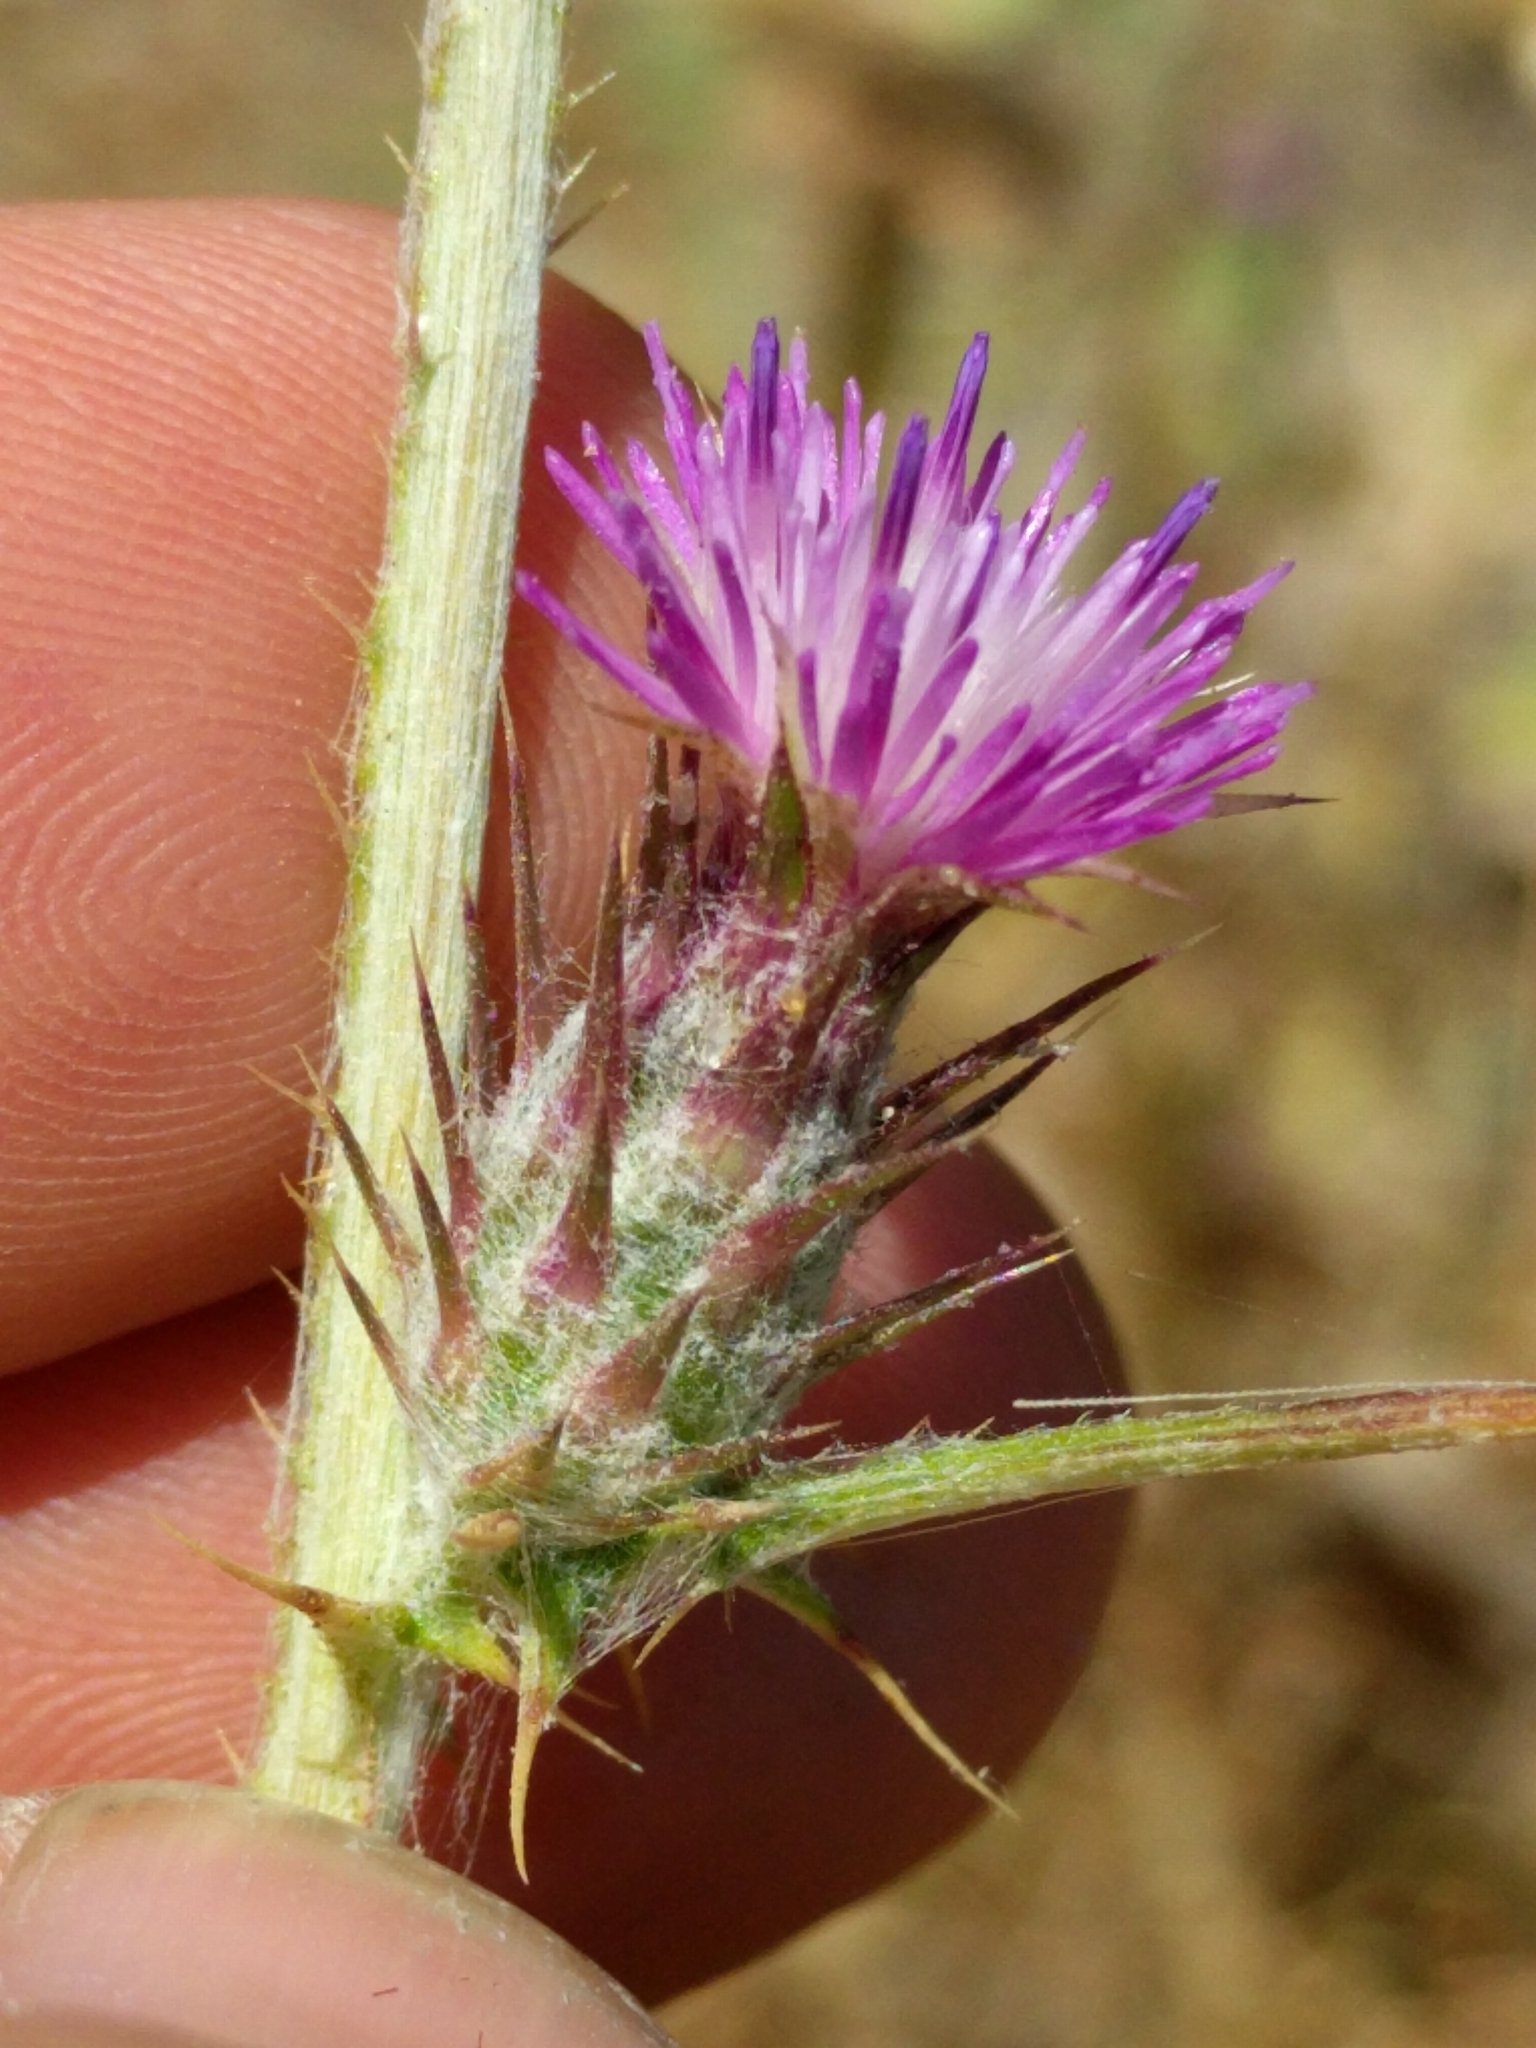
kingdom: Plantae
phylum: Tracheophyta
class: Magnoliopsida
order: Asterales
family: Asteraceae
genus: Carduus
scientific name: Carduus pycnocephalus
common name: Plymouth thistle
